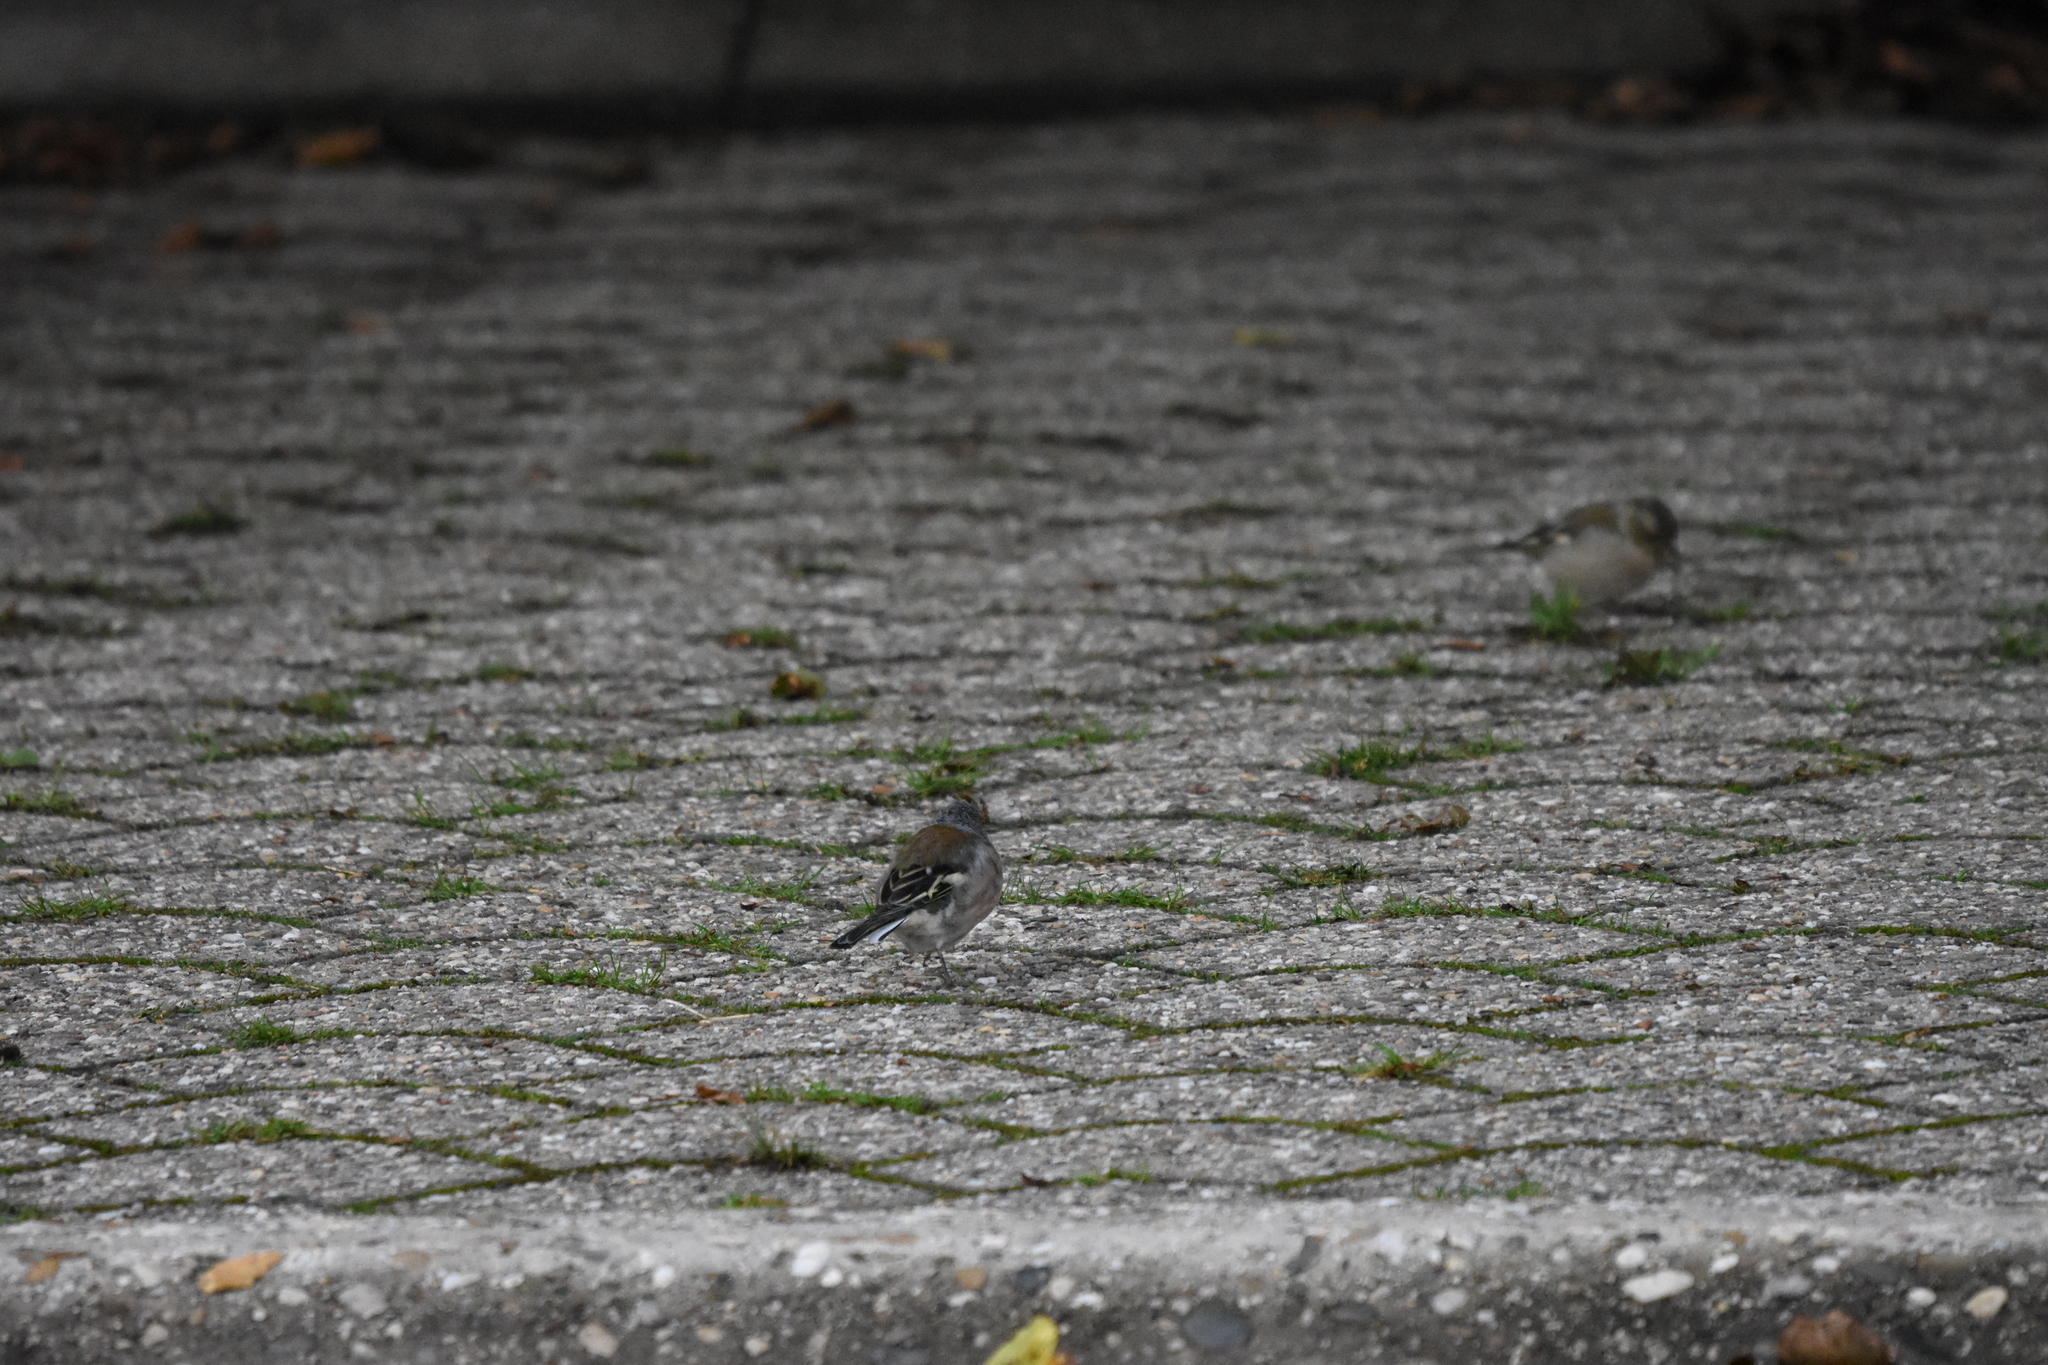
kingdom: Animalia
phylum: Chordata
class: Aves
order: Passeriformes
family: Fringillidae
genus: Fringilla
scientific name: Fringilla coelebs
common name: Common chaffinch
